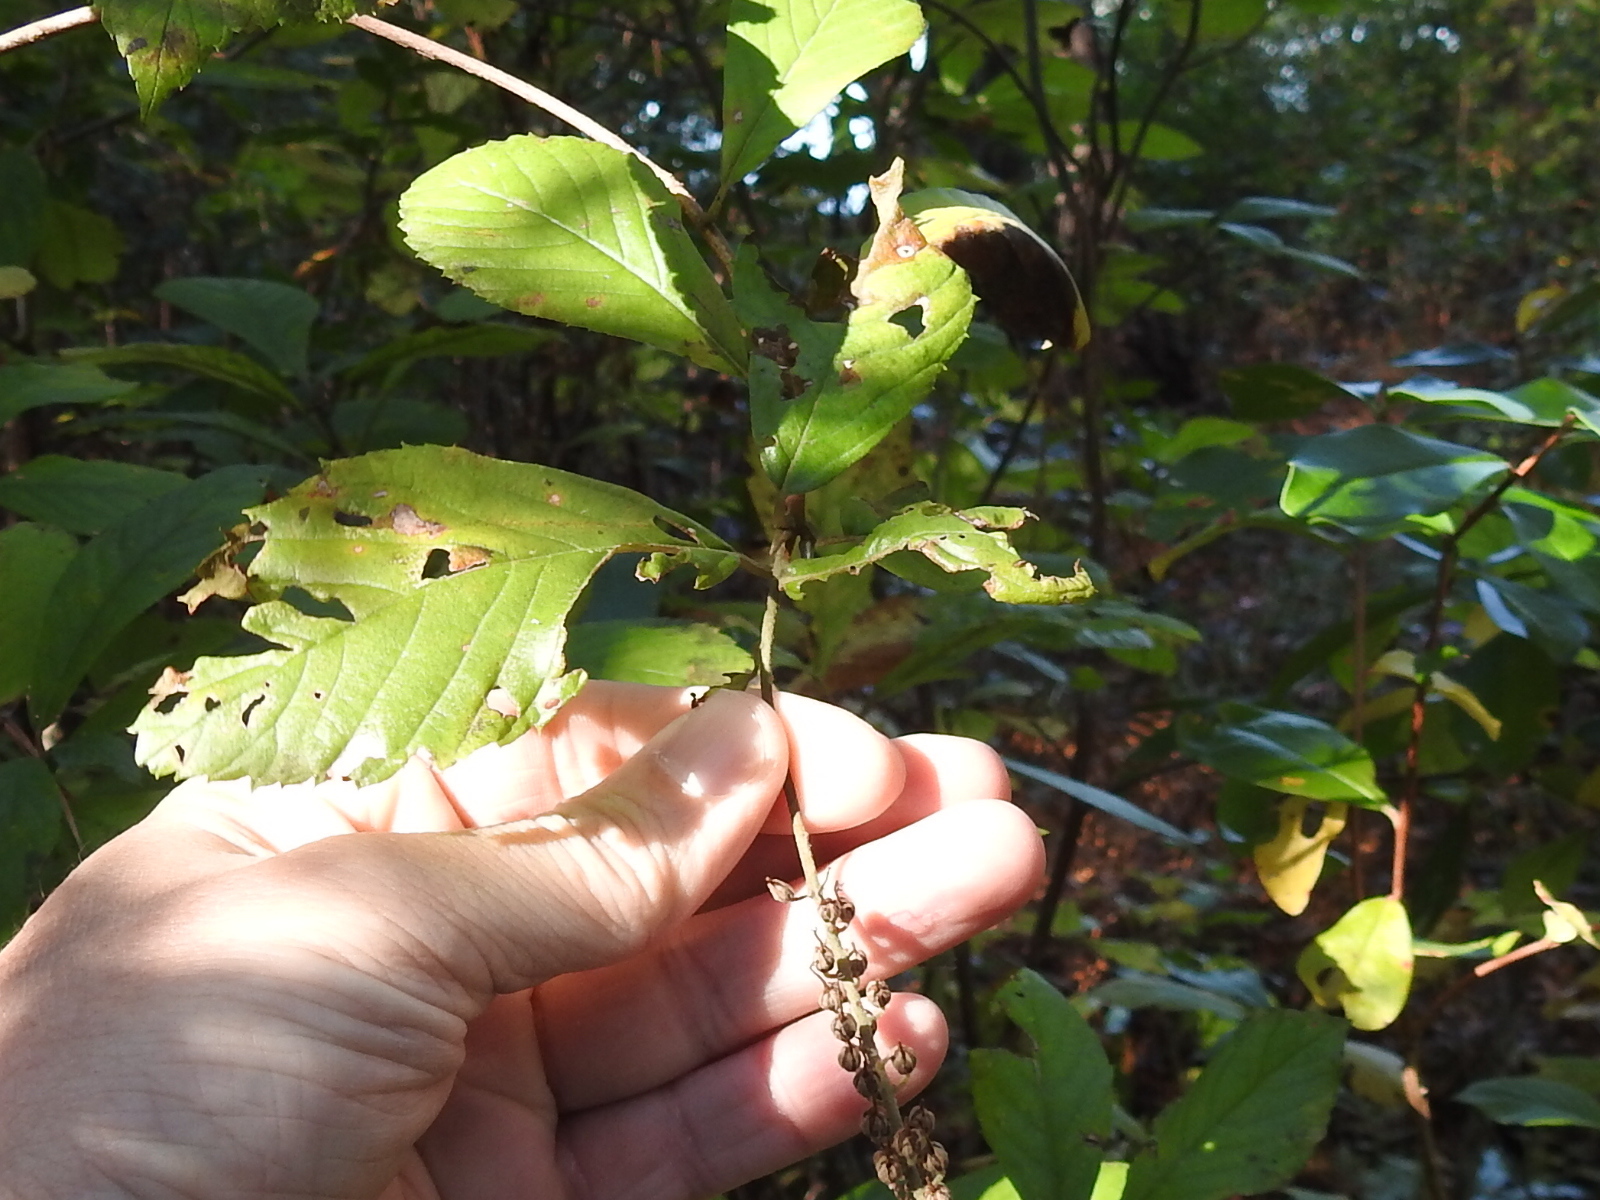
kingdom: Plantae
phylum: Tracheophyta
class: Magnoliopsida
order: Ericales
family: Clethraceae
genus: Clethra
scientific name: Clethra alnifolia
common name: Sweet pepperbush
